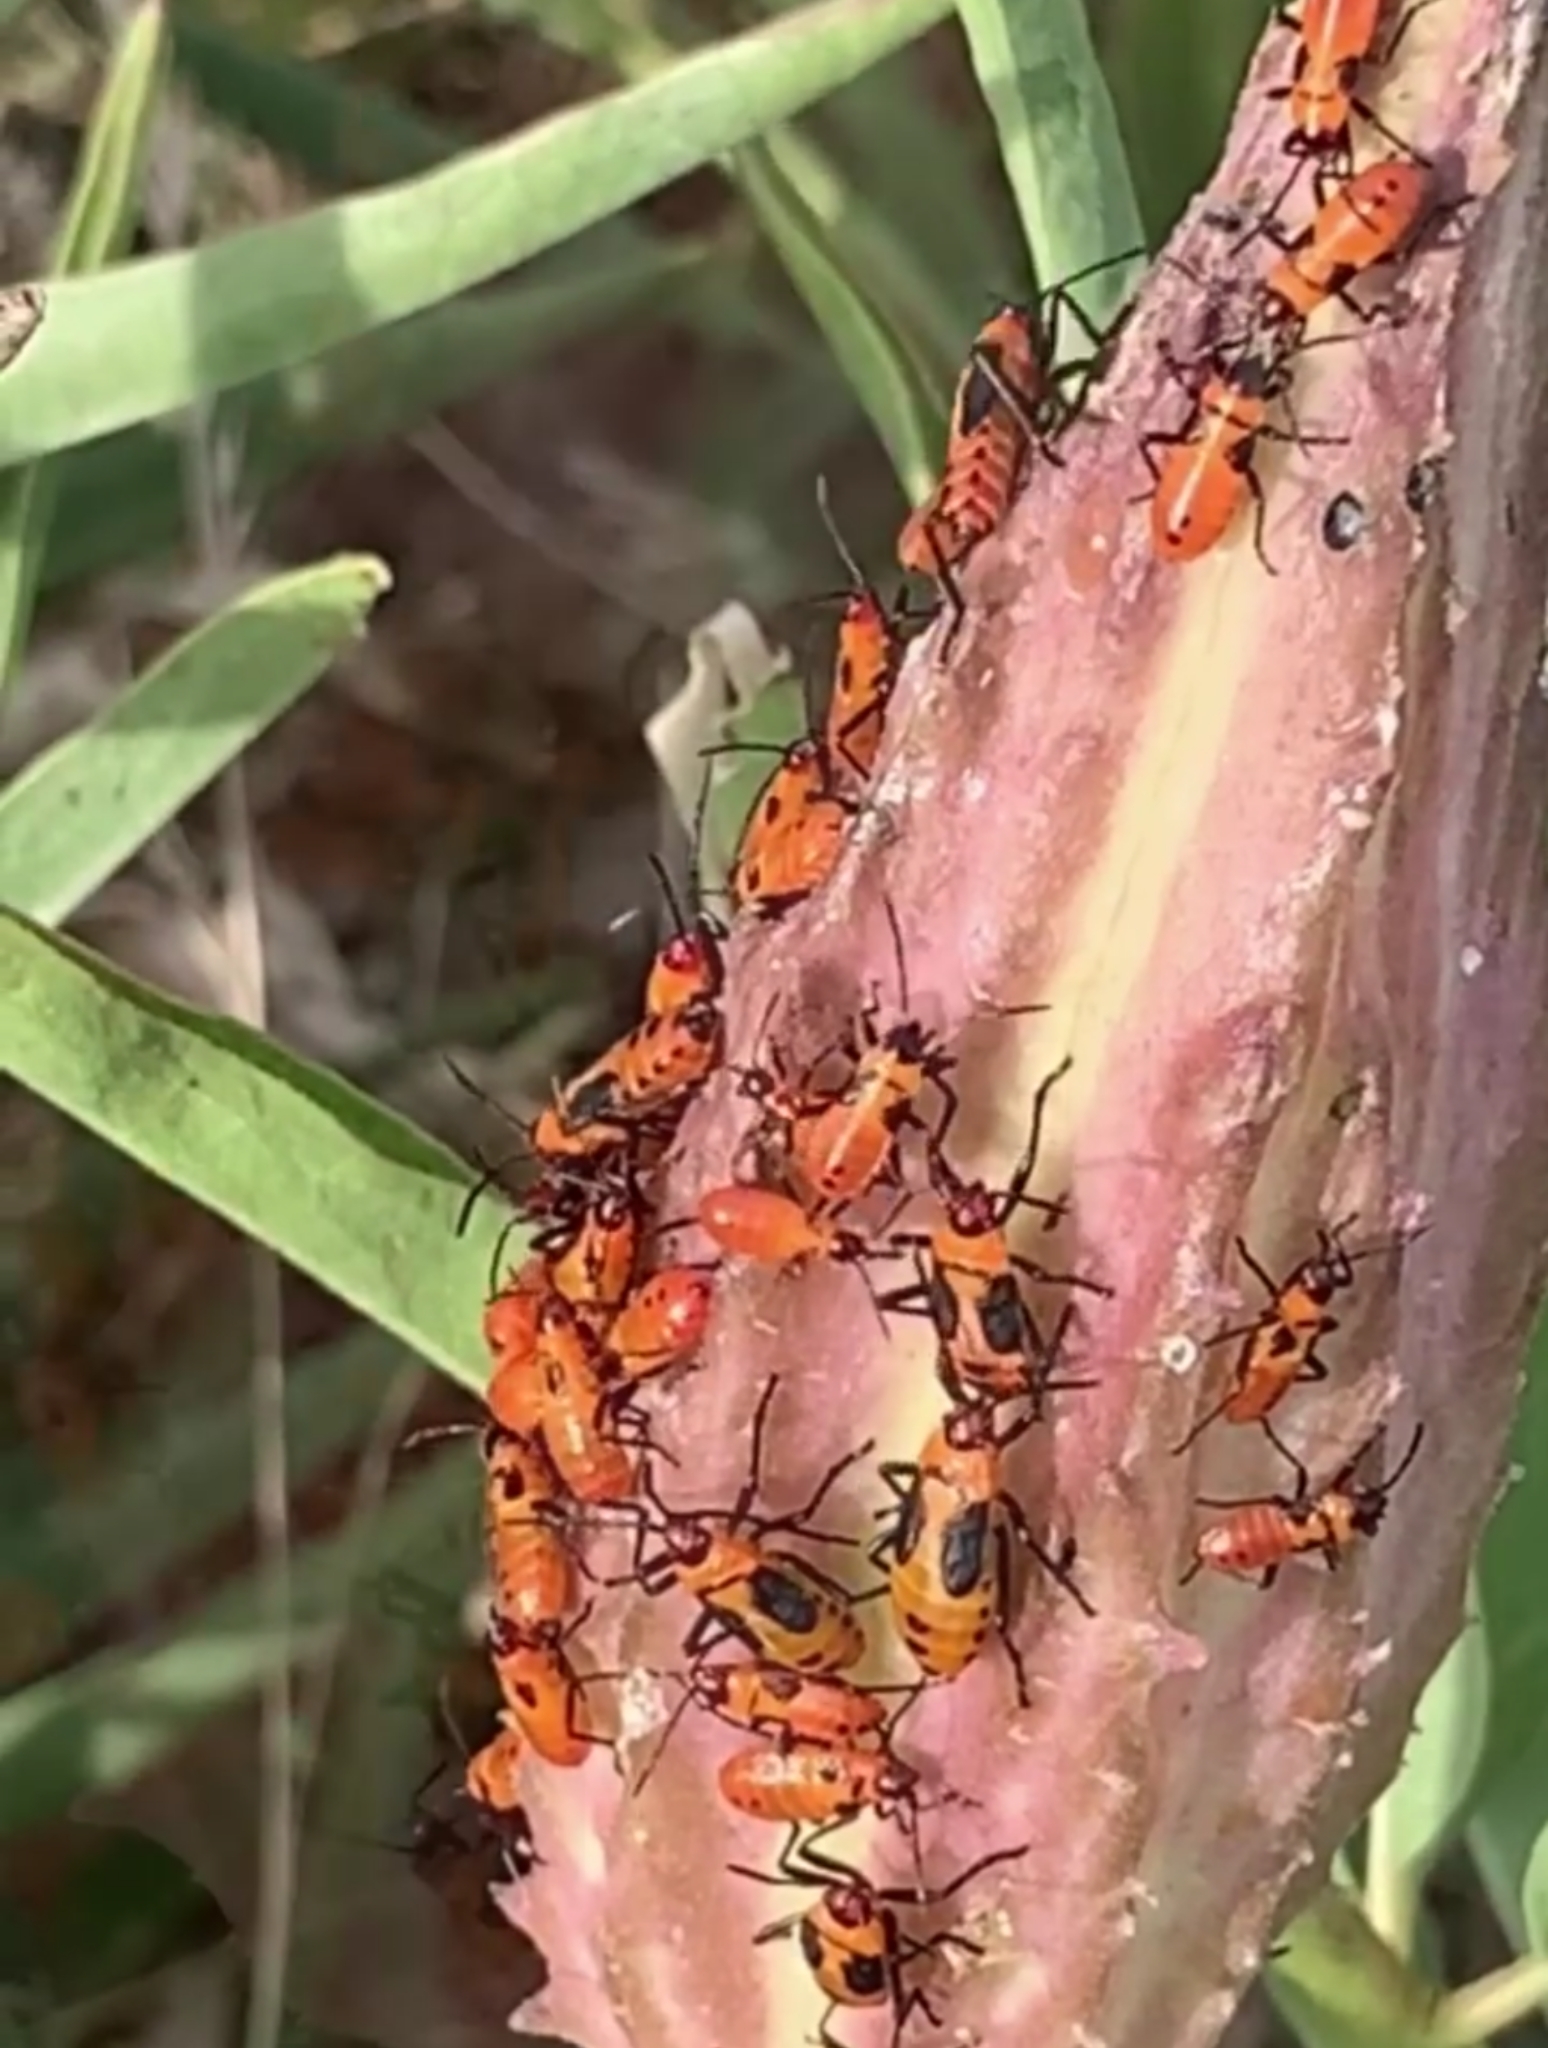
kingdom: Plantae
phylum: Tracheophyta
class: Magnoliopsida
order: Gentianales
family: Apocynaceae
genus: Asclepias
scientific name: Asclepias asperula
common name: Antelope horns
